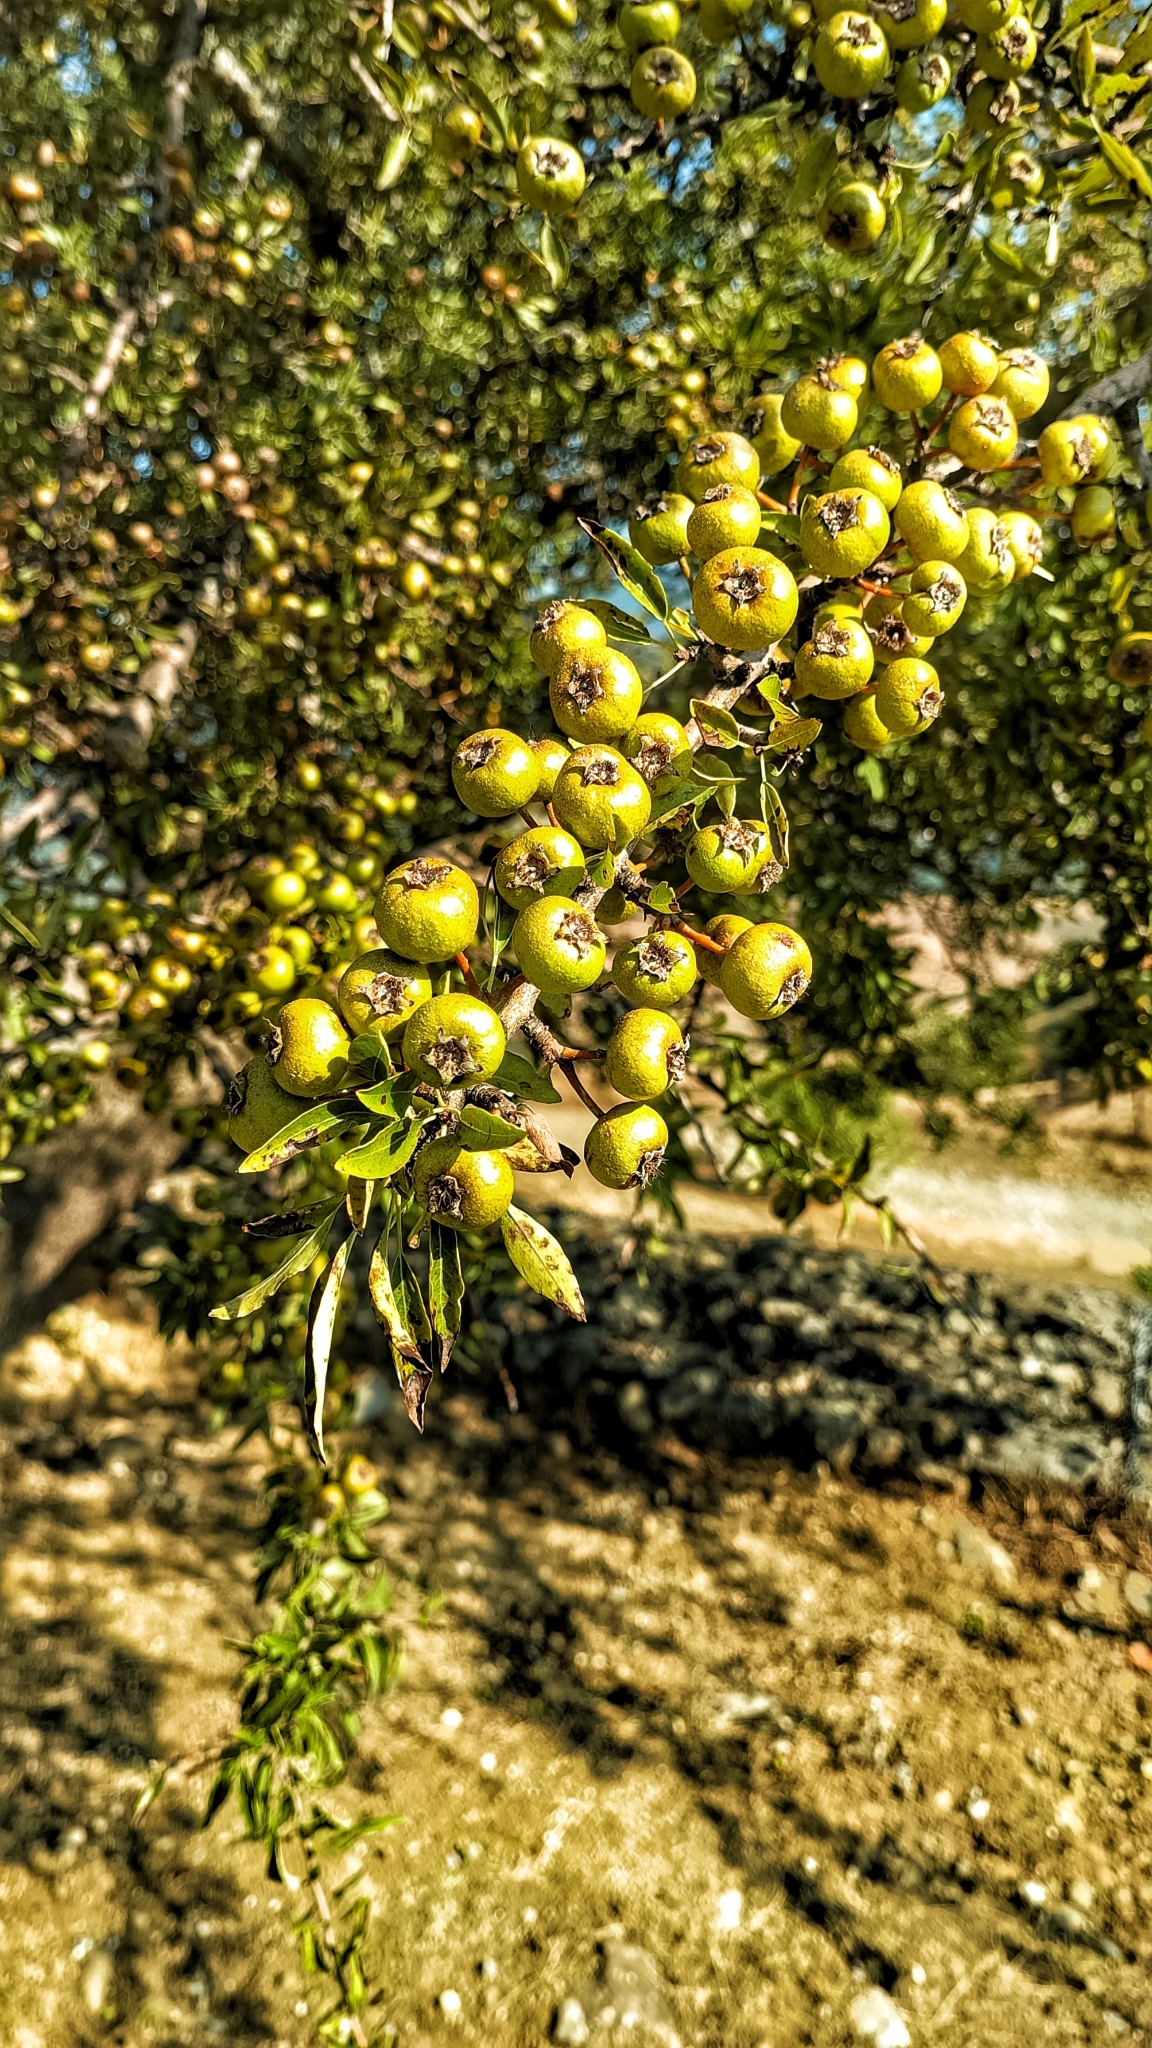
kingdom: Plantae
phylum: Tracheophyta
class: Magnoliopsida
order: Rosales
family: Rosaceae
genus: Pyrus
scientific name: Pyrus spinosa
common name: Almond-leaf pear
